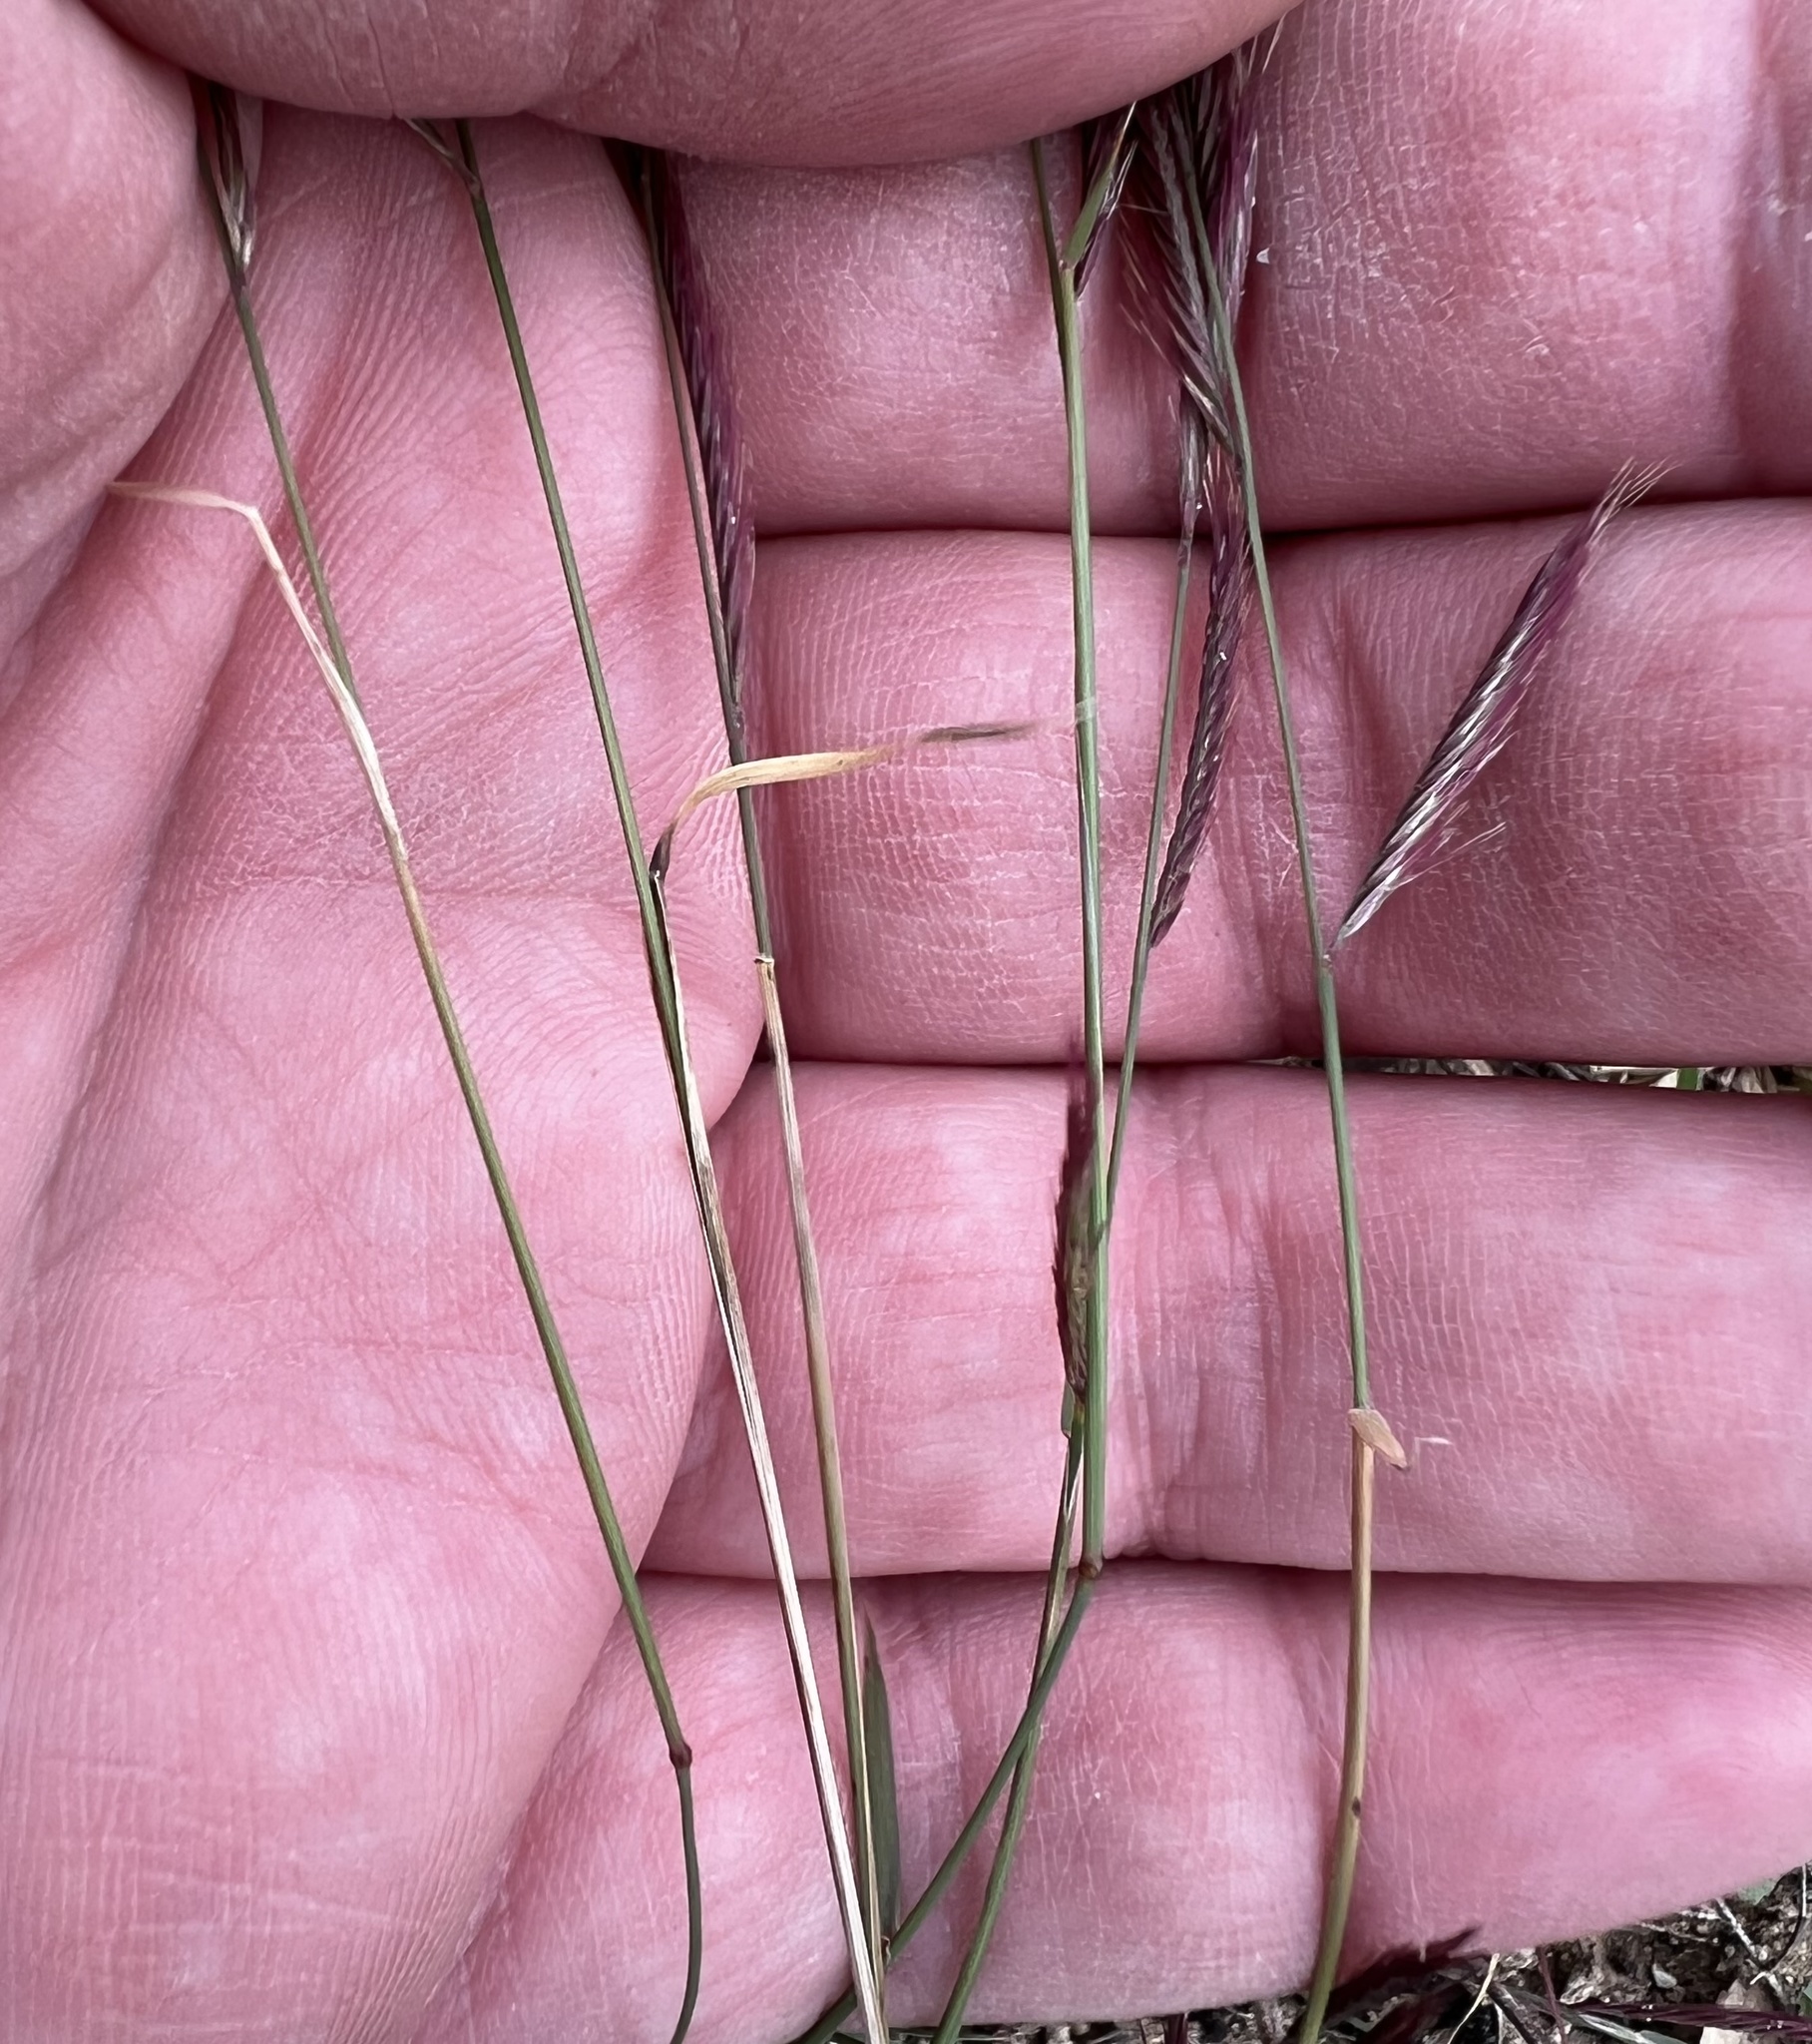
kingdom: Plantae
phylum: Tracheophyta
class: Liliopsida
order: Poales
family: Poaceae
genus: Bouteloua
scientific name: Bouteloua trifida
